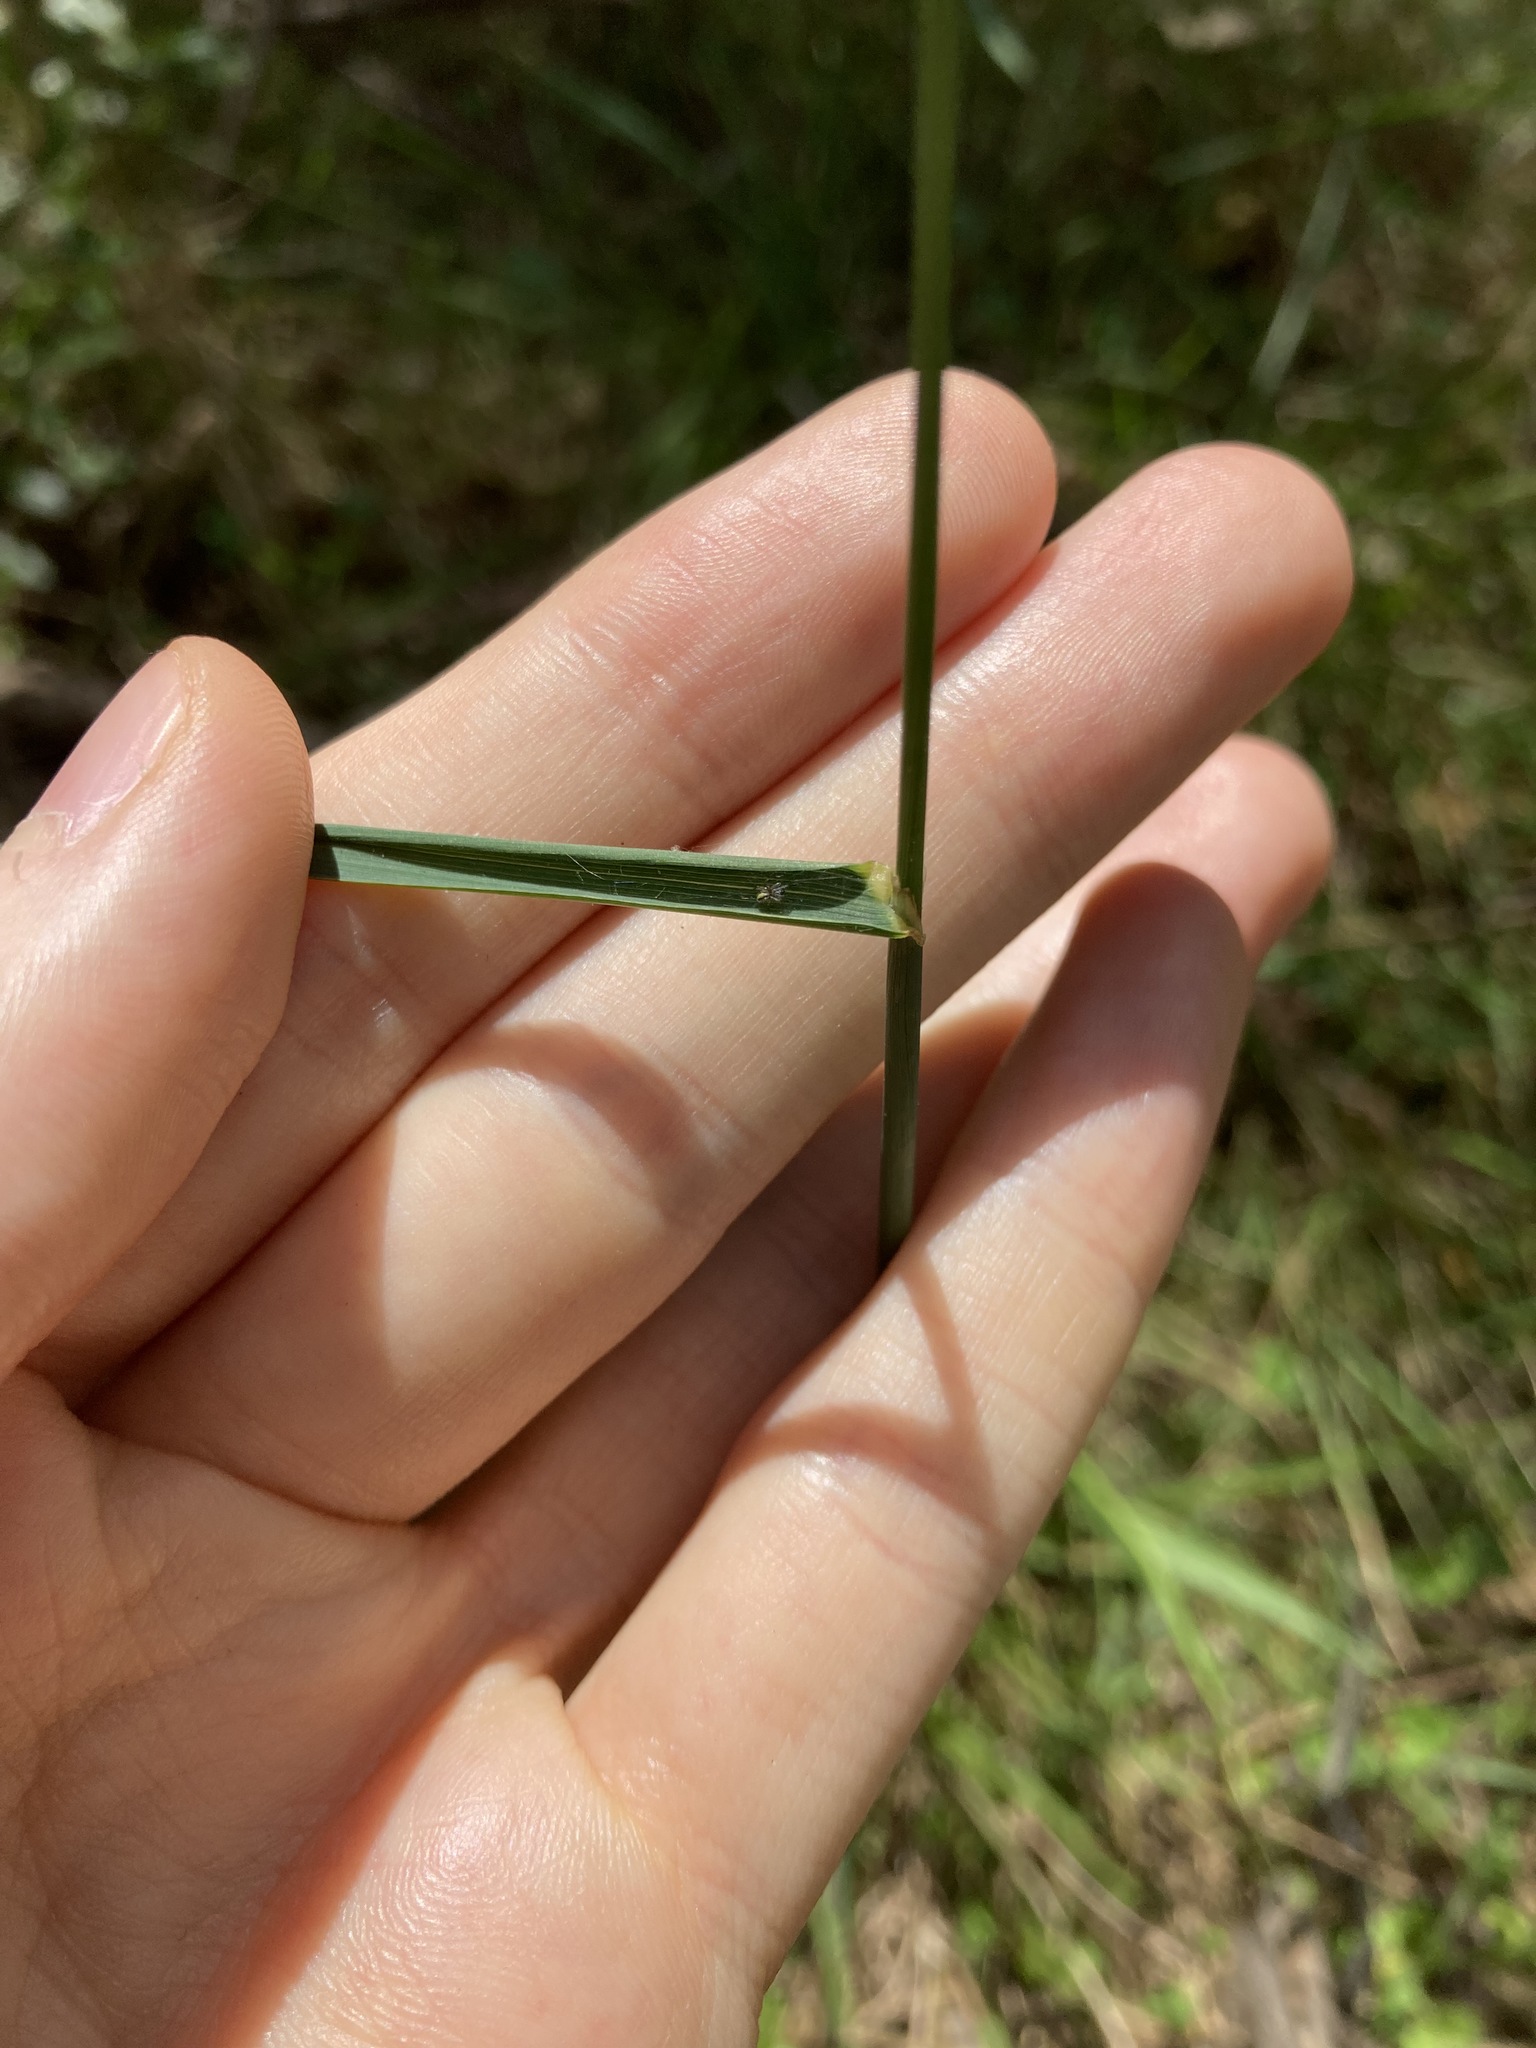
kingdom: Plantae
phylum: Tracheophyta
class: Liliopsida
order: Poales
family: Poaceae
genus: Echinopogon
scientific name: Echinopogon caespitosus
